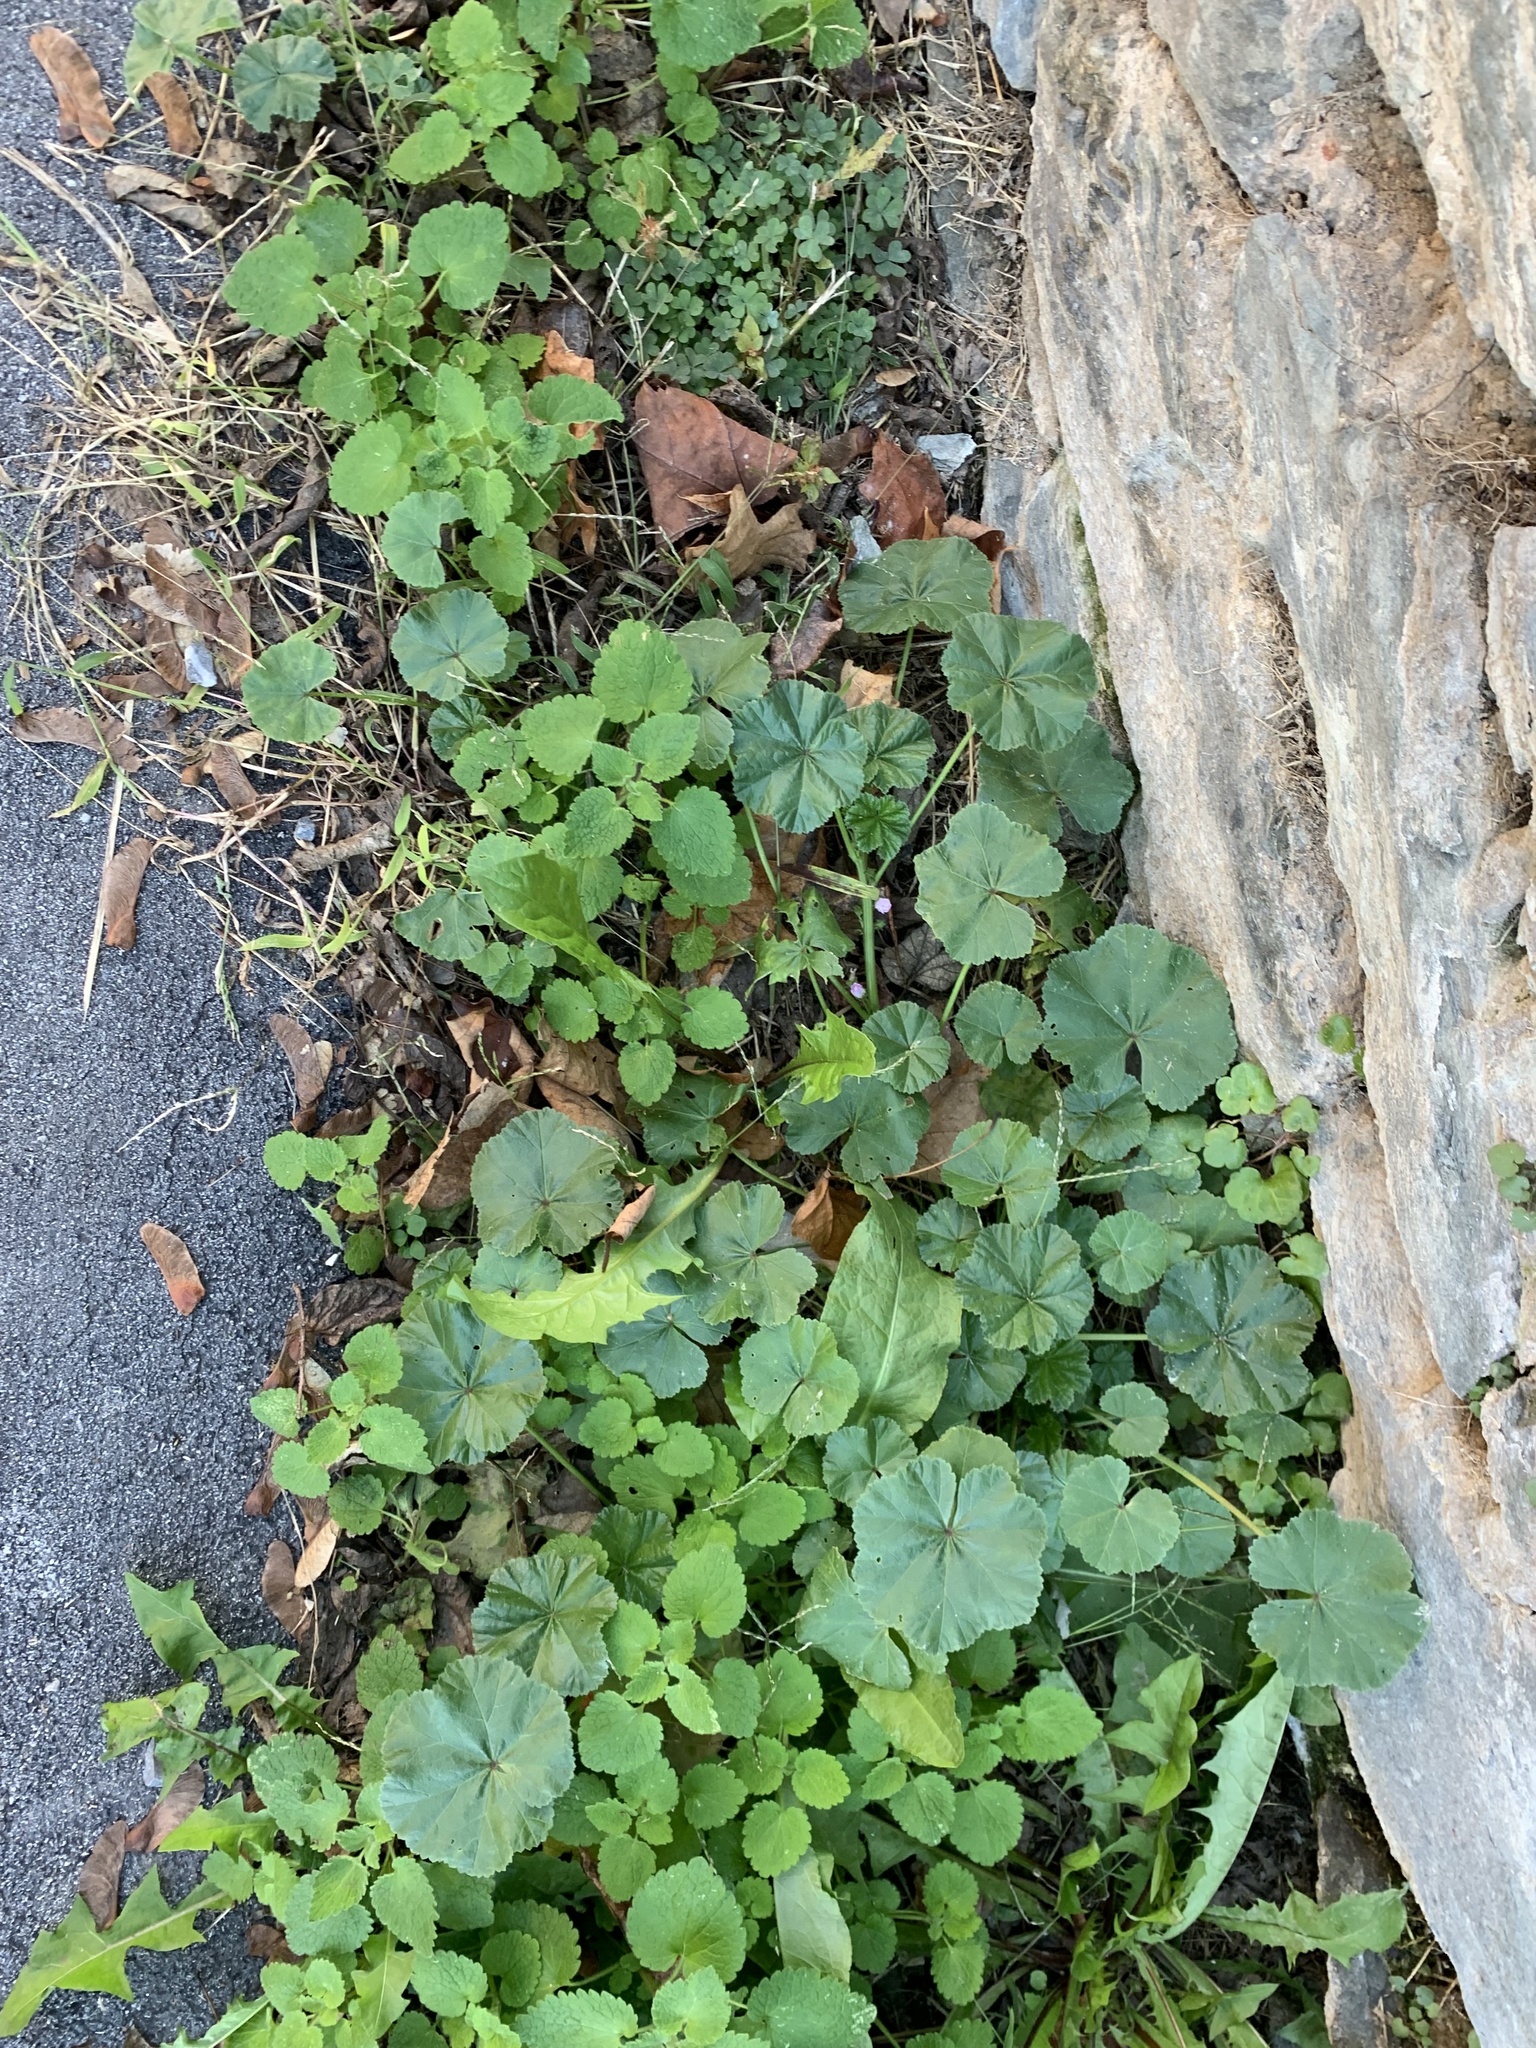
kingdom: Plantae
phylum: Tracheophyta
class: Magnoliopsida
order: Malvales
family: Malvaceae
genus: Malva
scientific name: Malva neglecta
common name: Common mallow
